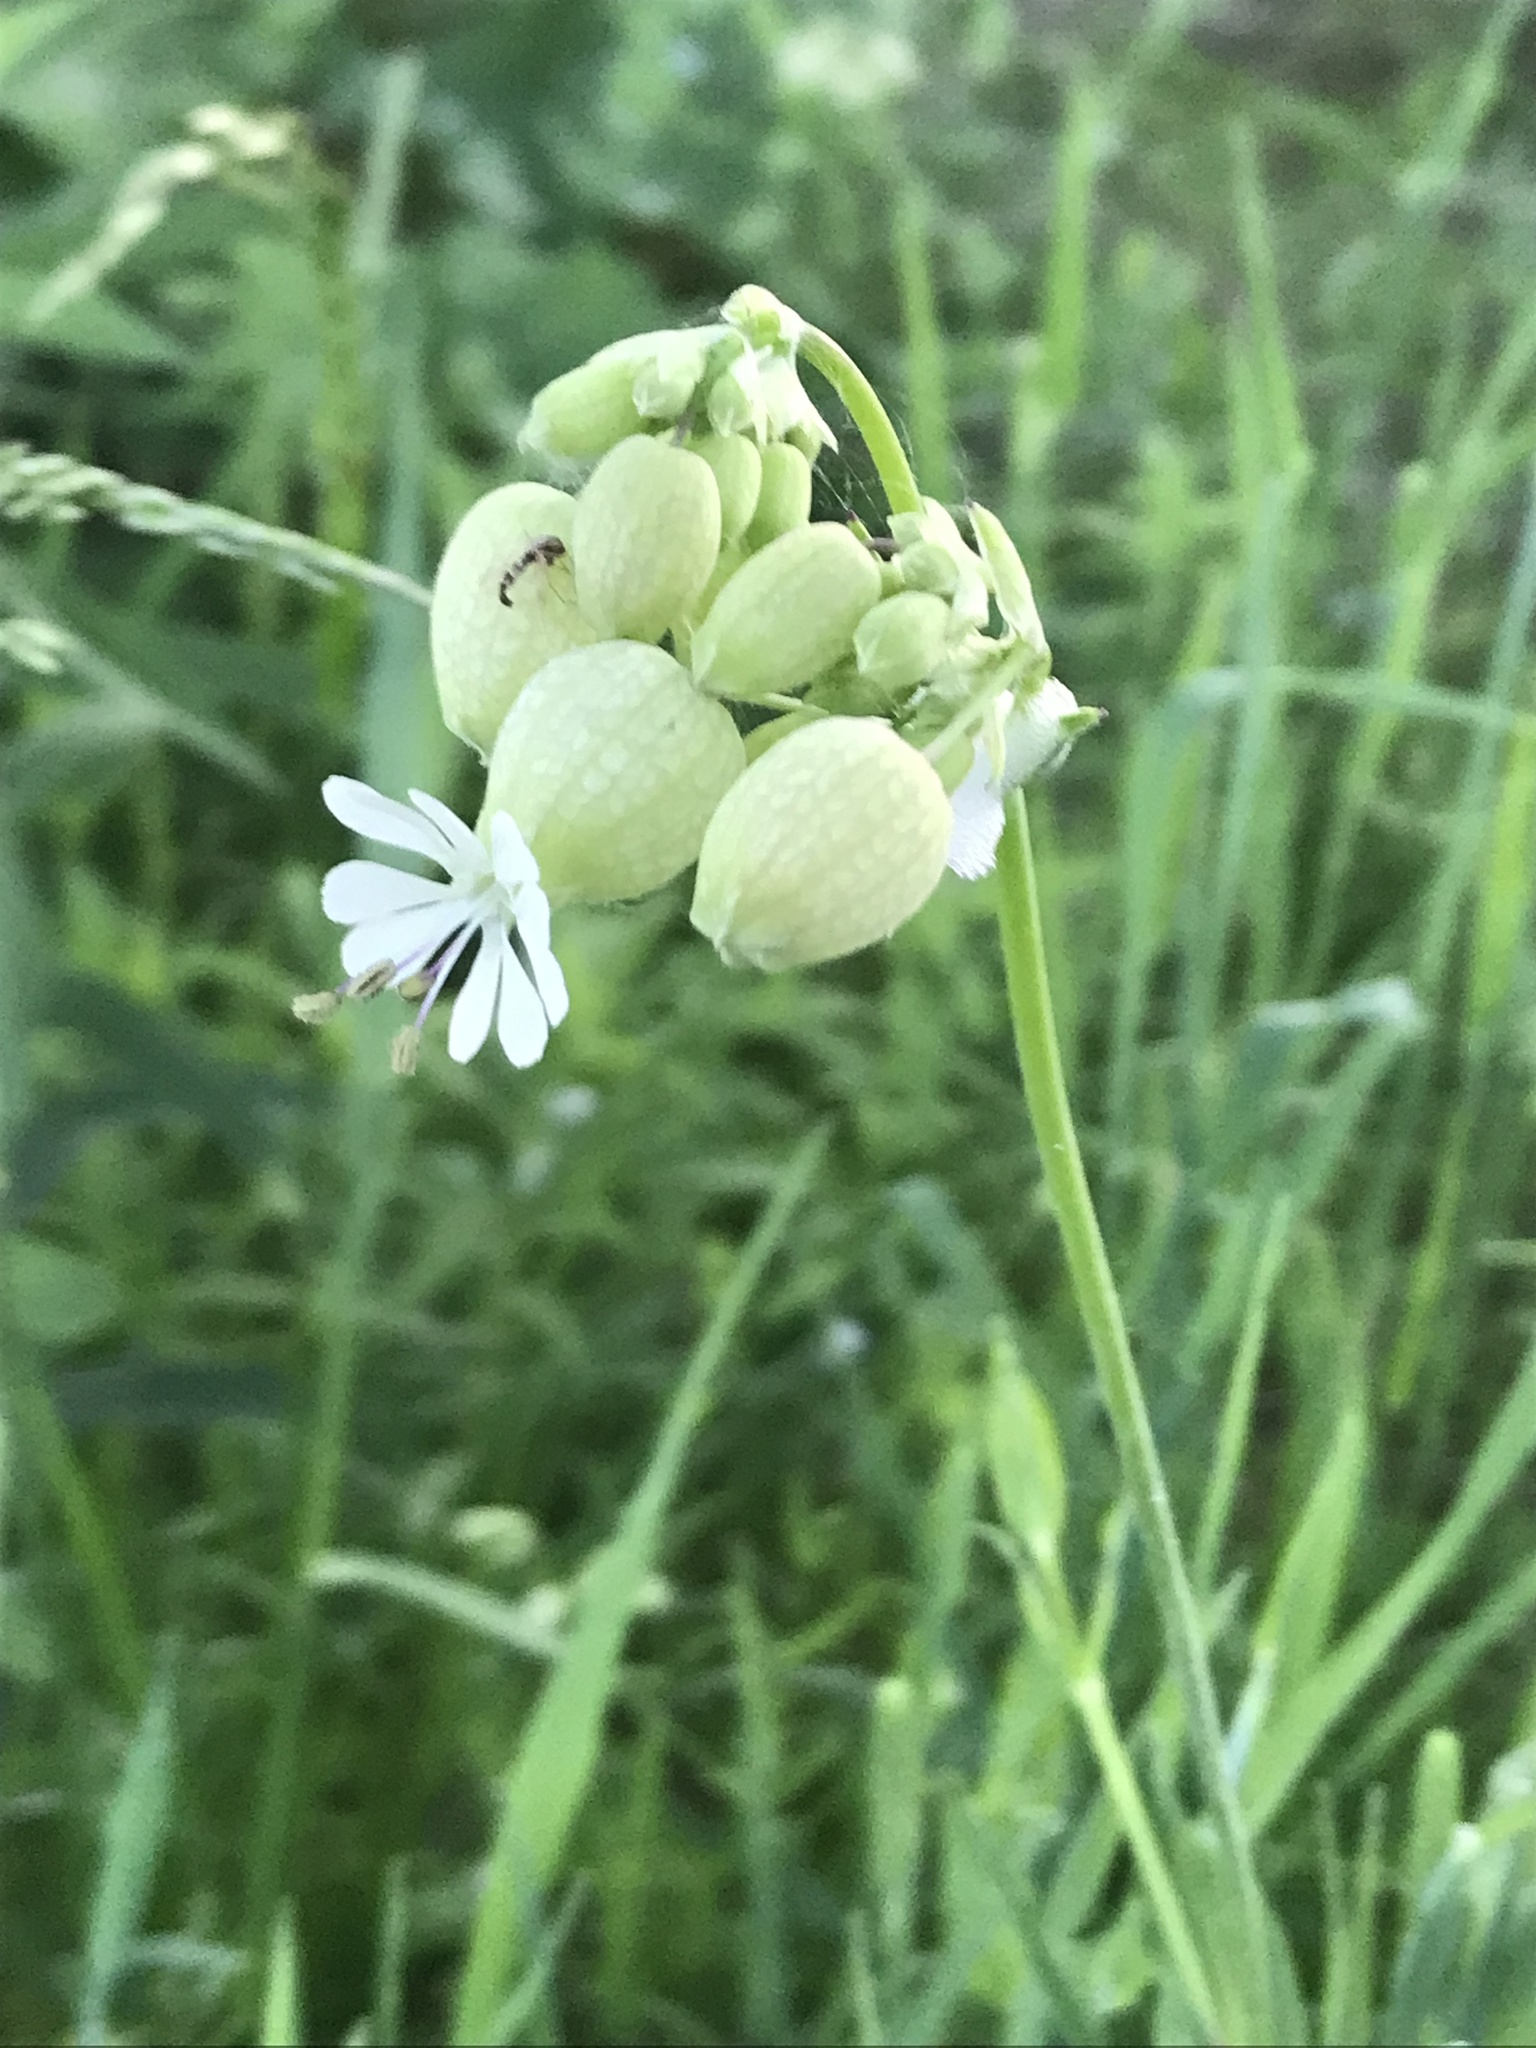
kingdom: Plantae
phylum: Tracheophyta
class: Magnoliopsida
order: Caryophyllales
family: Caryophyllaceae
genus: Silene
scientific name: Silene vulgaris
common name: Bladder campion
